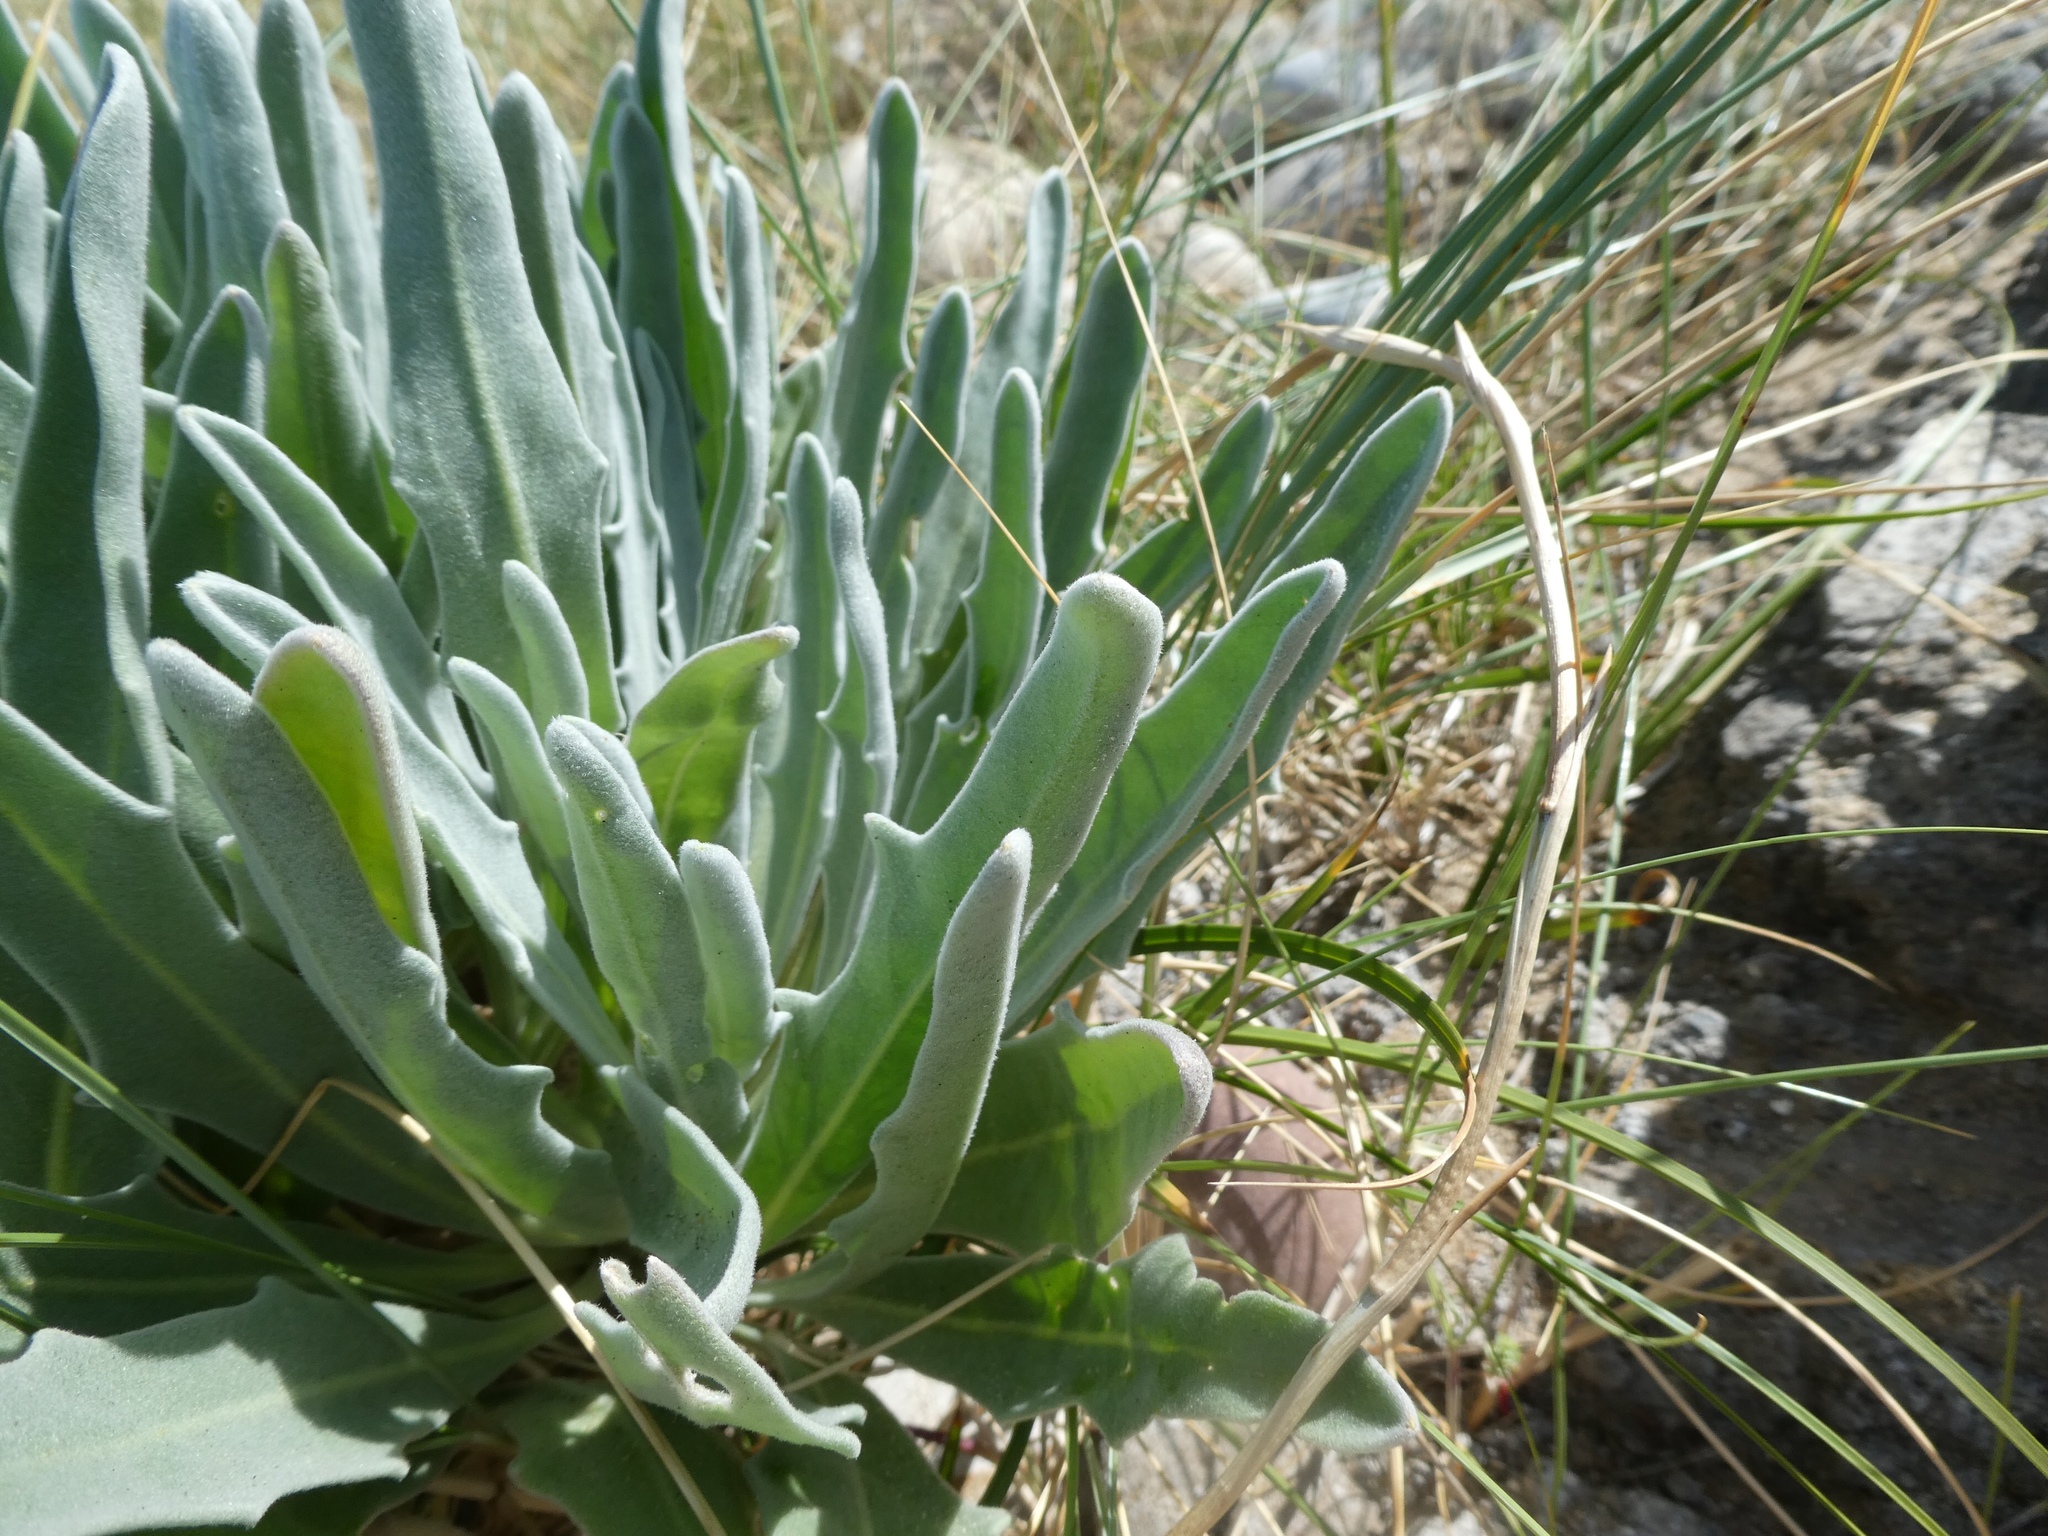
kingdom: Plantae
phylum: Tracheophyta
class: Magnoliopsida
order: Brassicales
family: Brassicaceae
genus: Matthiola
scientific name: Matthiola sinuata
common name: Sea stock
